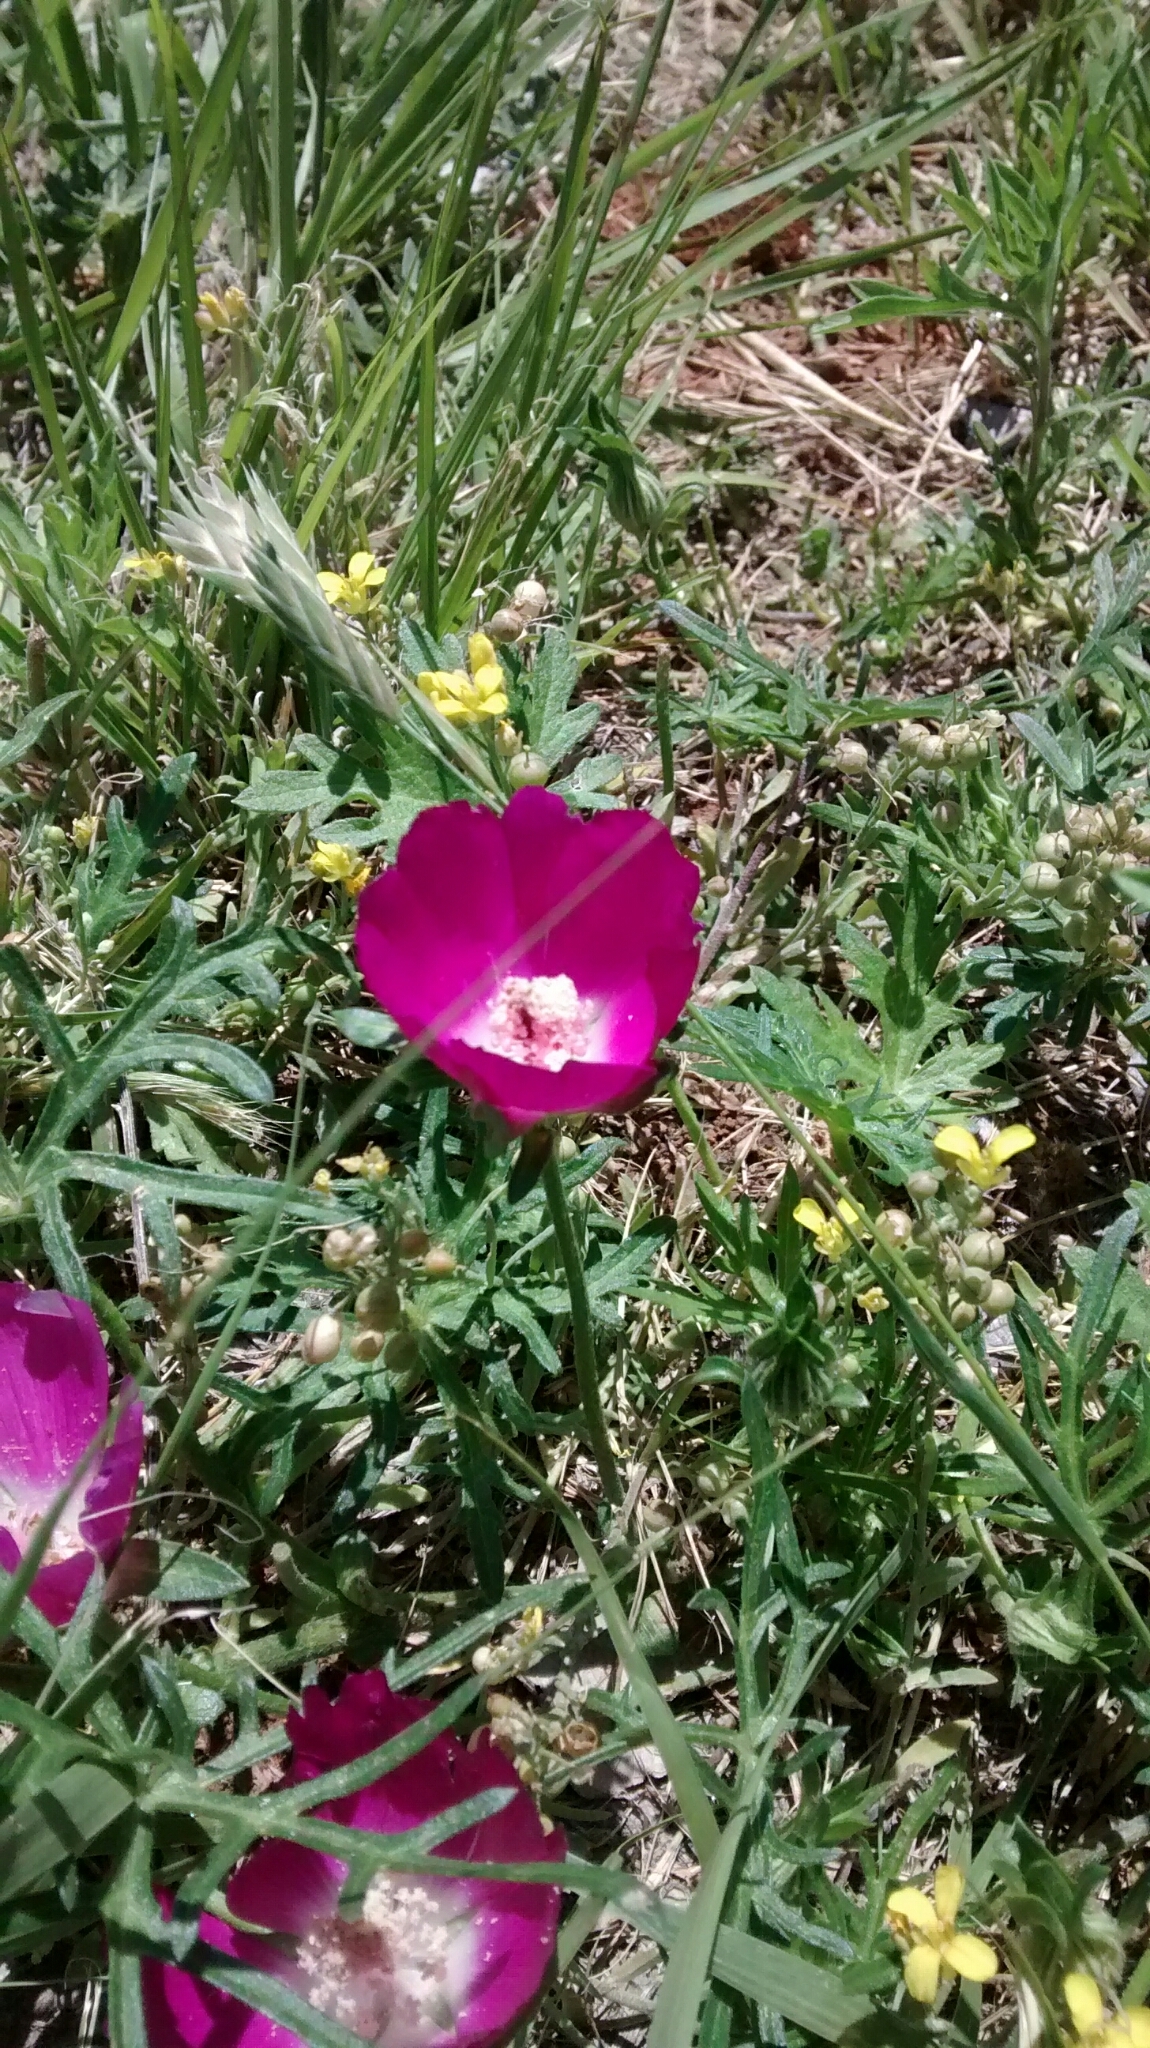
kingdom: Plantae
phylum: Tracheophyta
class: Magnoliopsida
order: Malvales
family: Malvaceae
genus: Callirhoe
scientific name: Callirhoe involucrata
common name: Purple poppy-mallow
